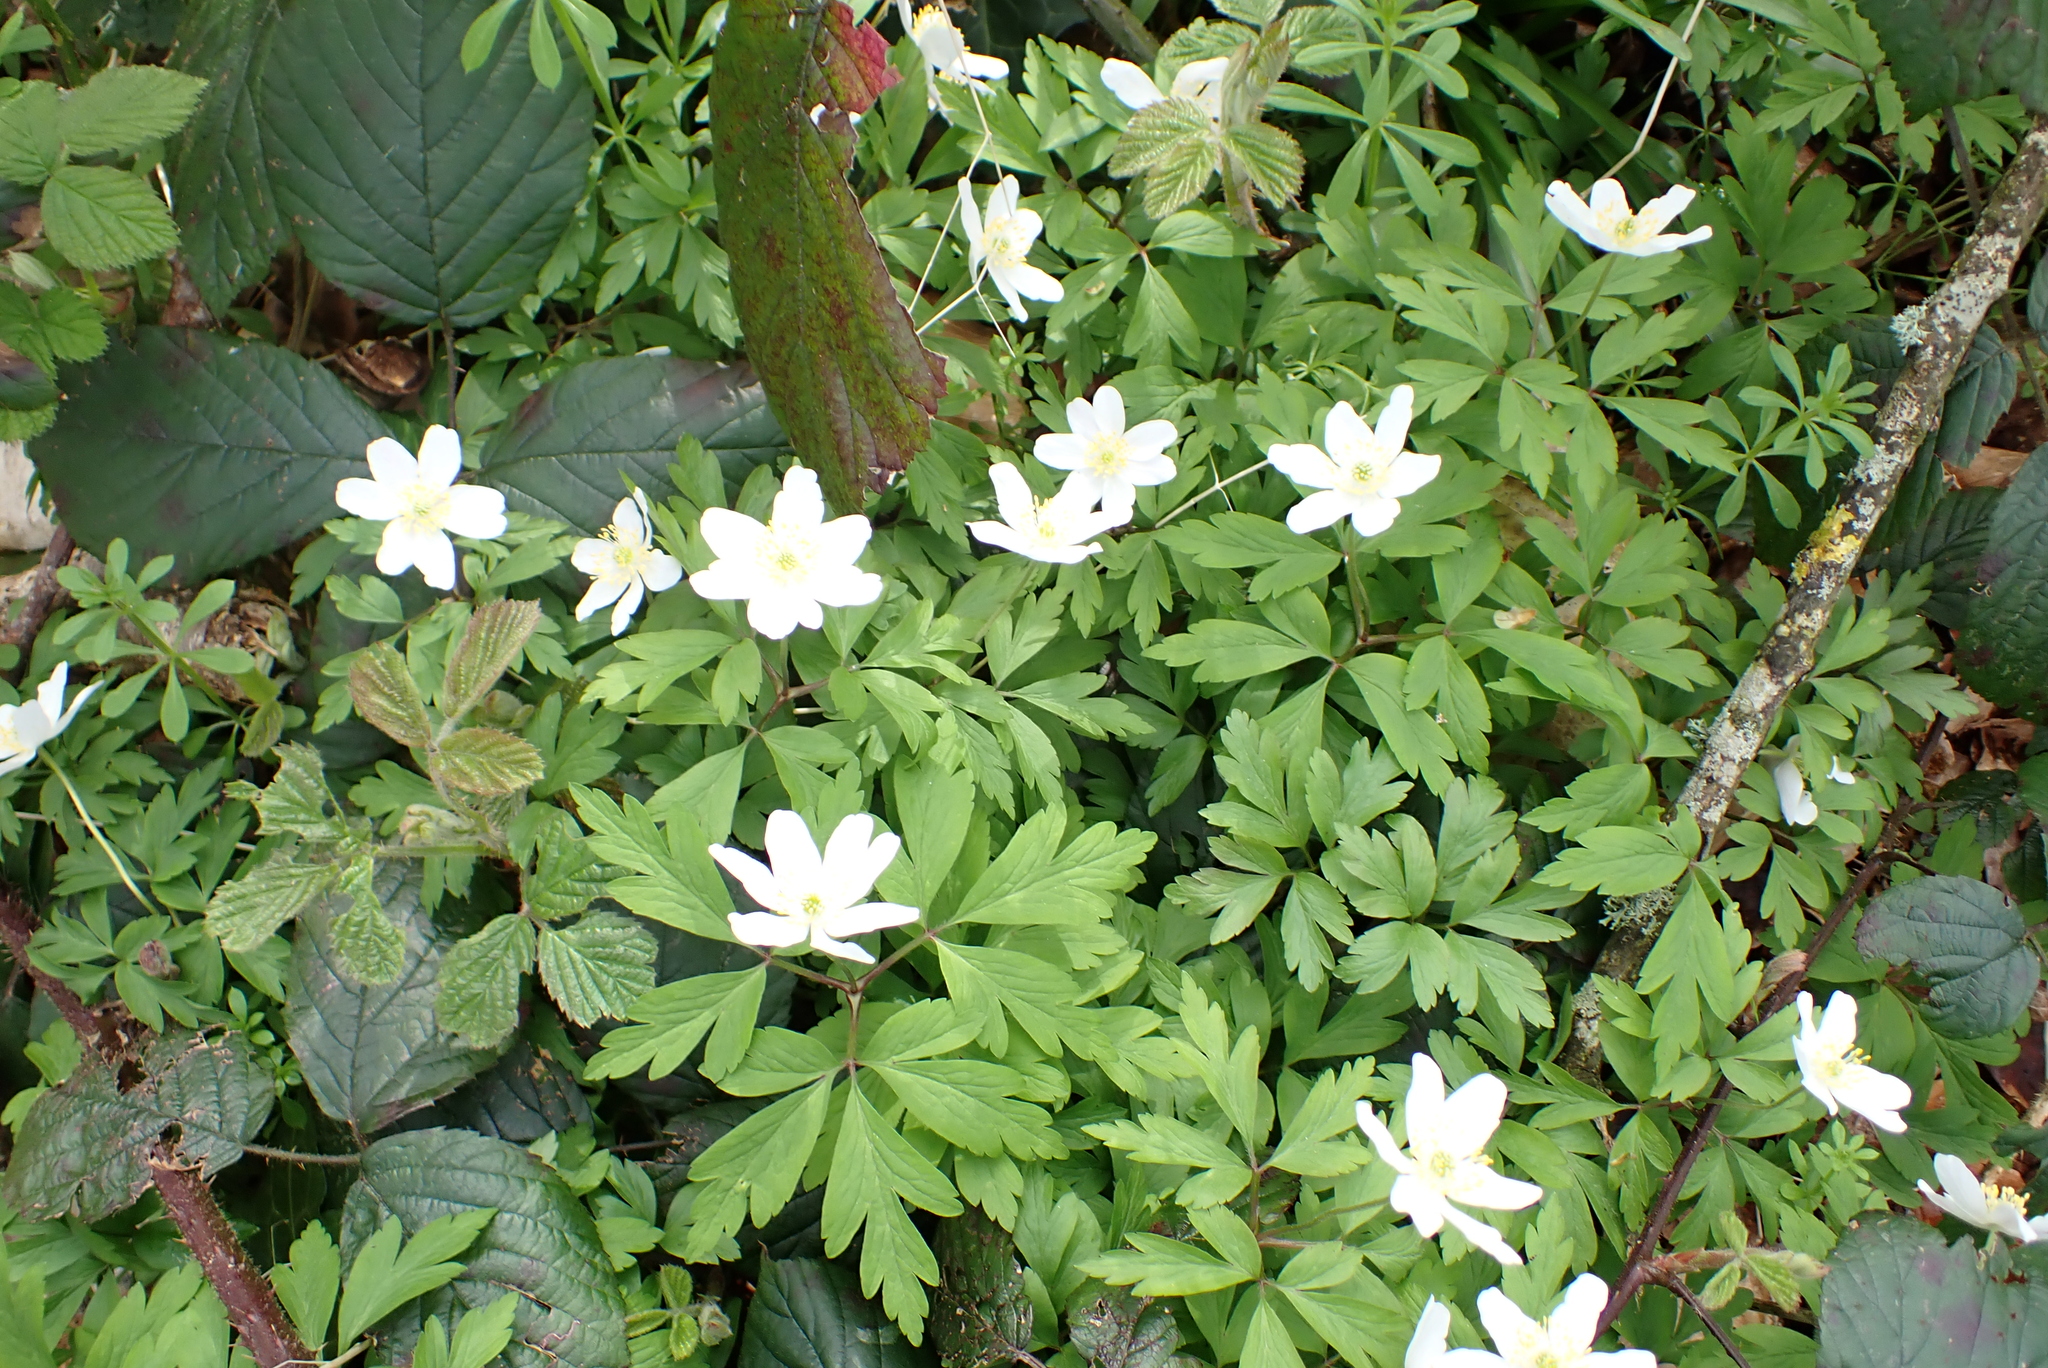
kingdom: Plantae
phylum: Tracheophyta
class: Magnoliopsida
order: Ranunculales
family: Ranunculaceae
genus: Anemone
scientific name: Anemone nemorosa
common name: Wood anemone
